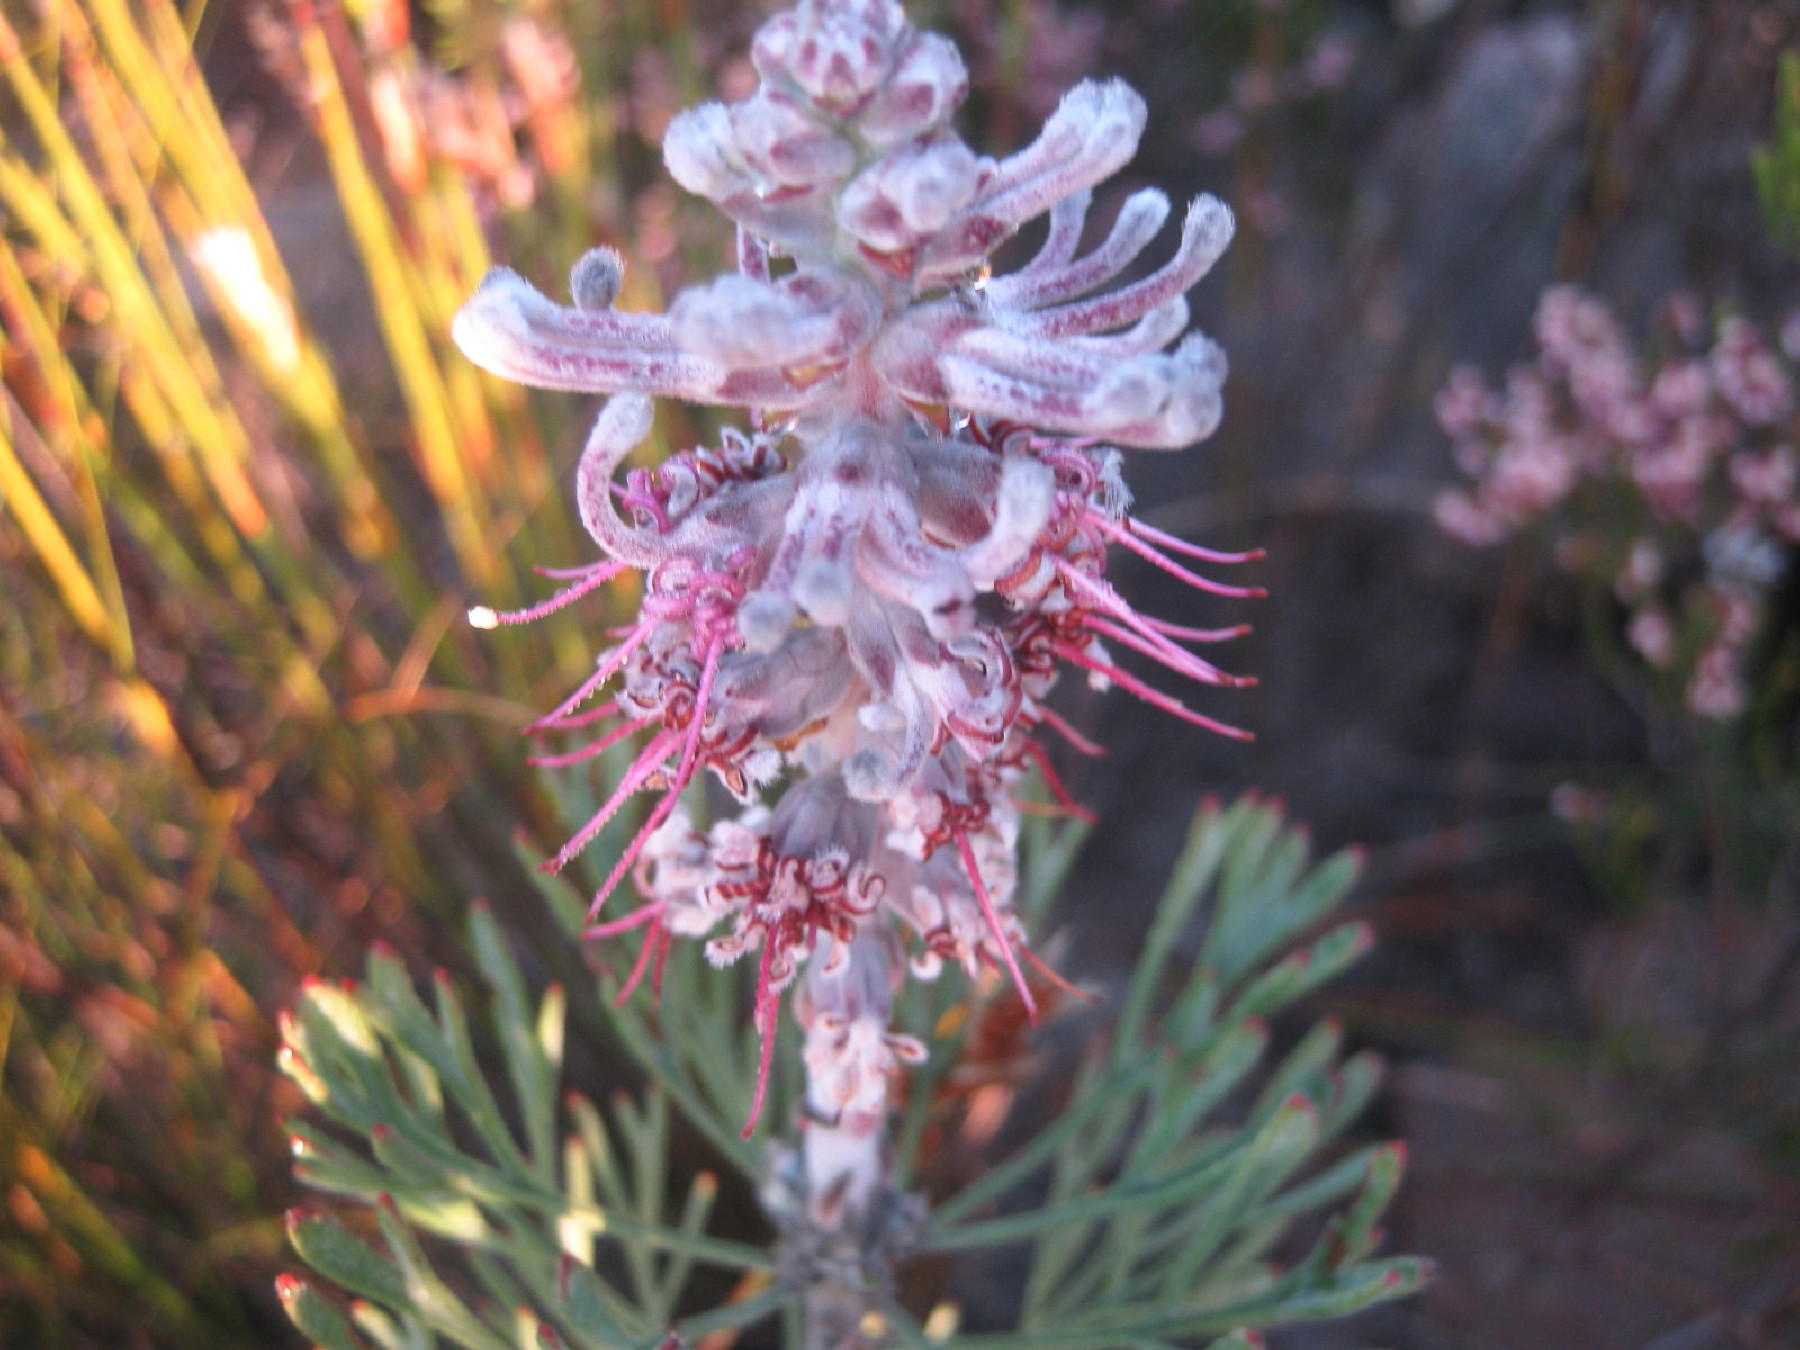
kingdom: Plantae
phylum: Tracheophyta
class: Magnoliopsida
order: Proteales
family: Proteaceae
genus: Paranomus
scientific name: Paranomus dispersus
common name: Long-head sceptre
